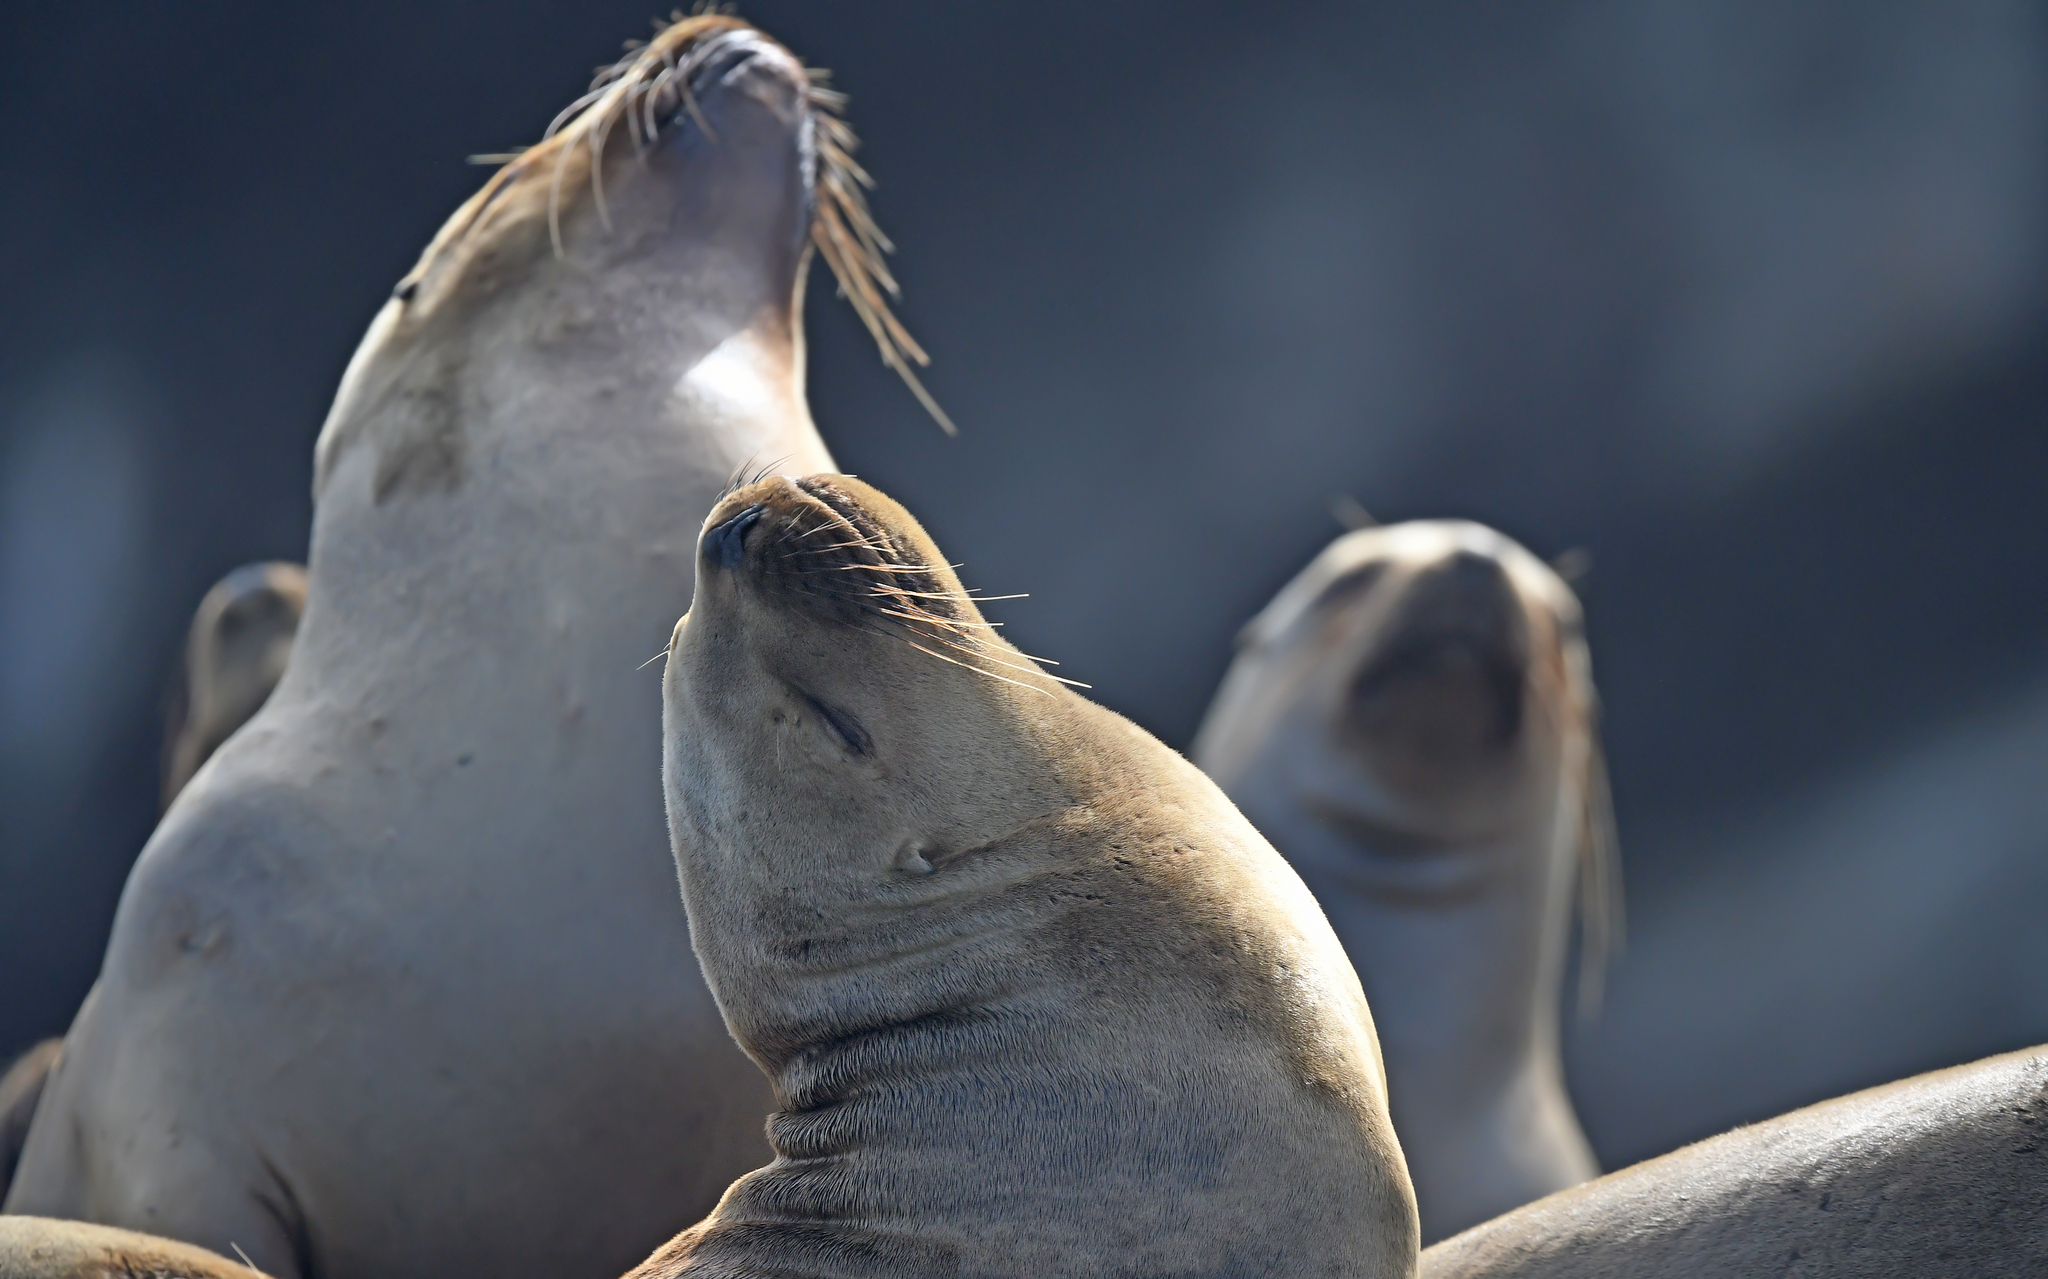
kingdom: Animalia
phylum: Chordata
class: Mammalia
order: Carnivora
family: Otariidae
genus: Otaria
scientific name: Otaria byronia
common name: South american sea lion
